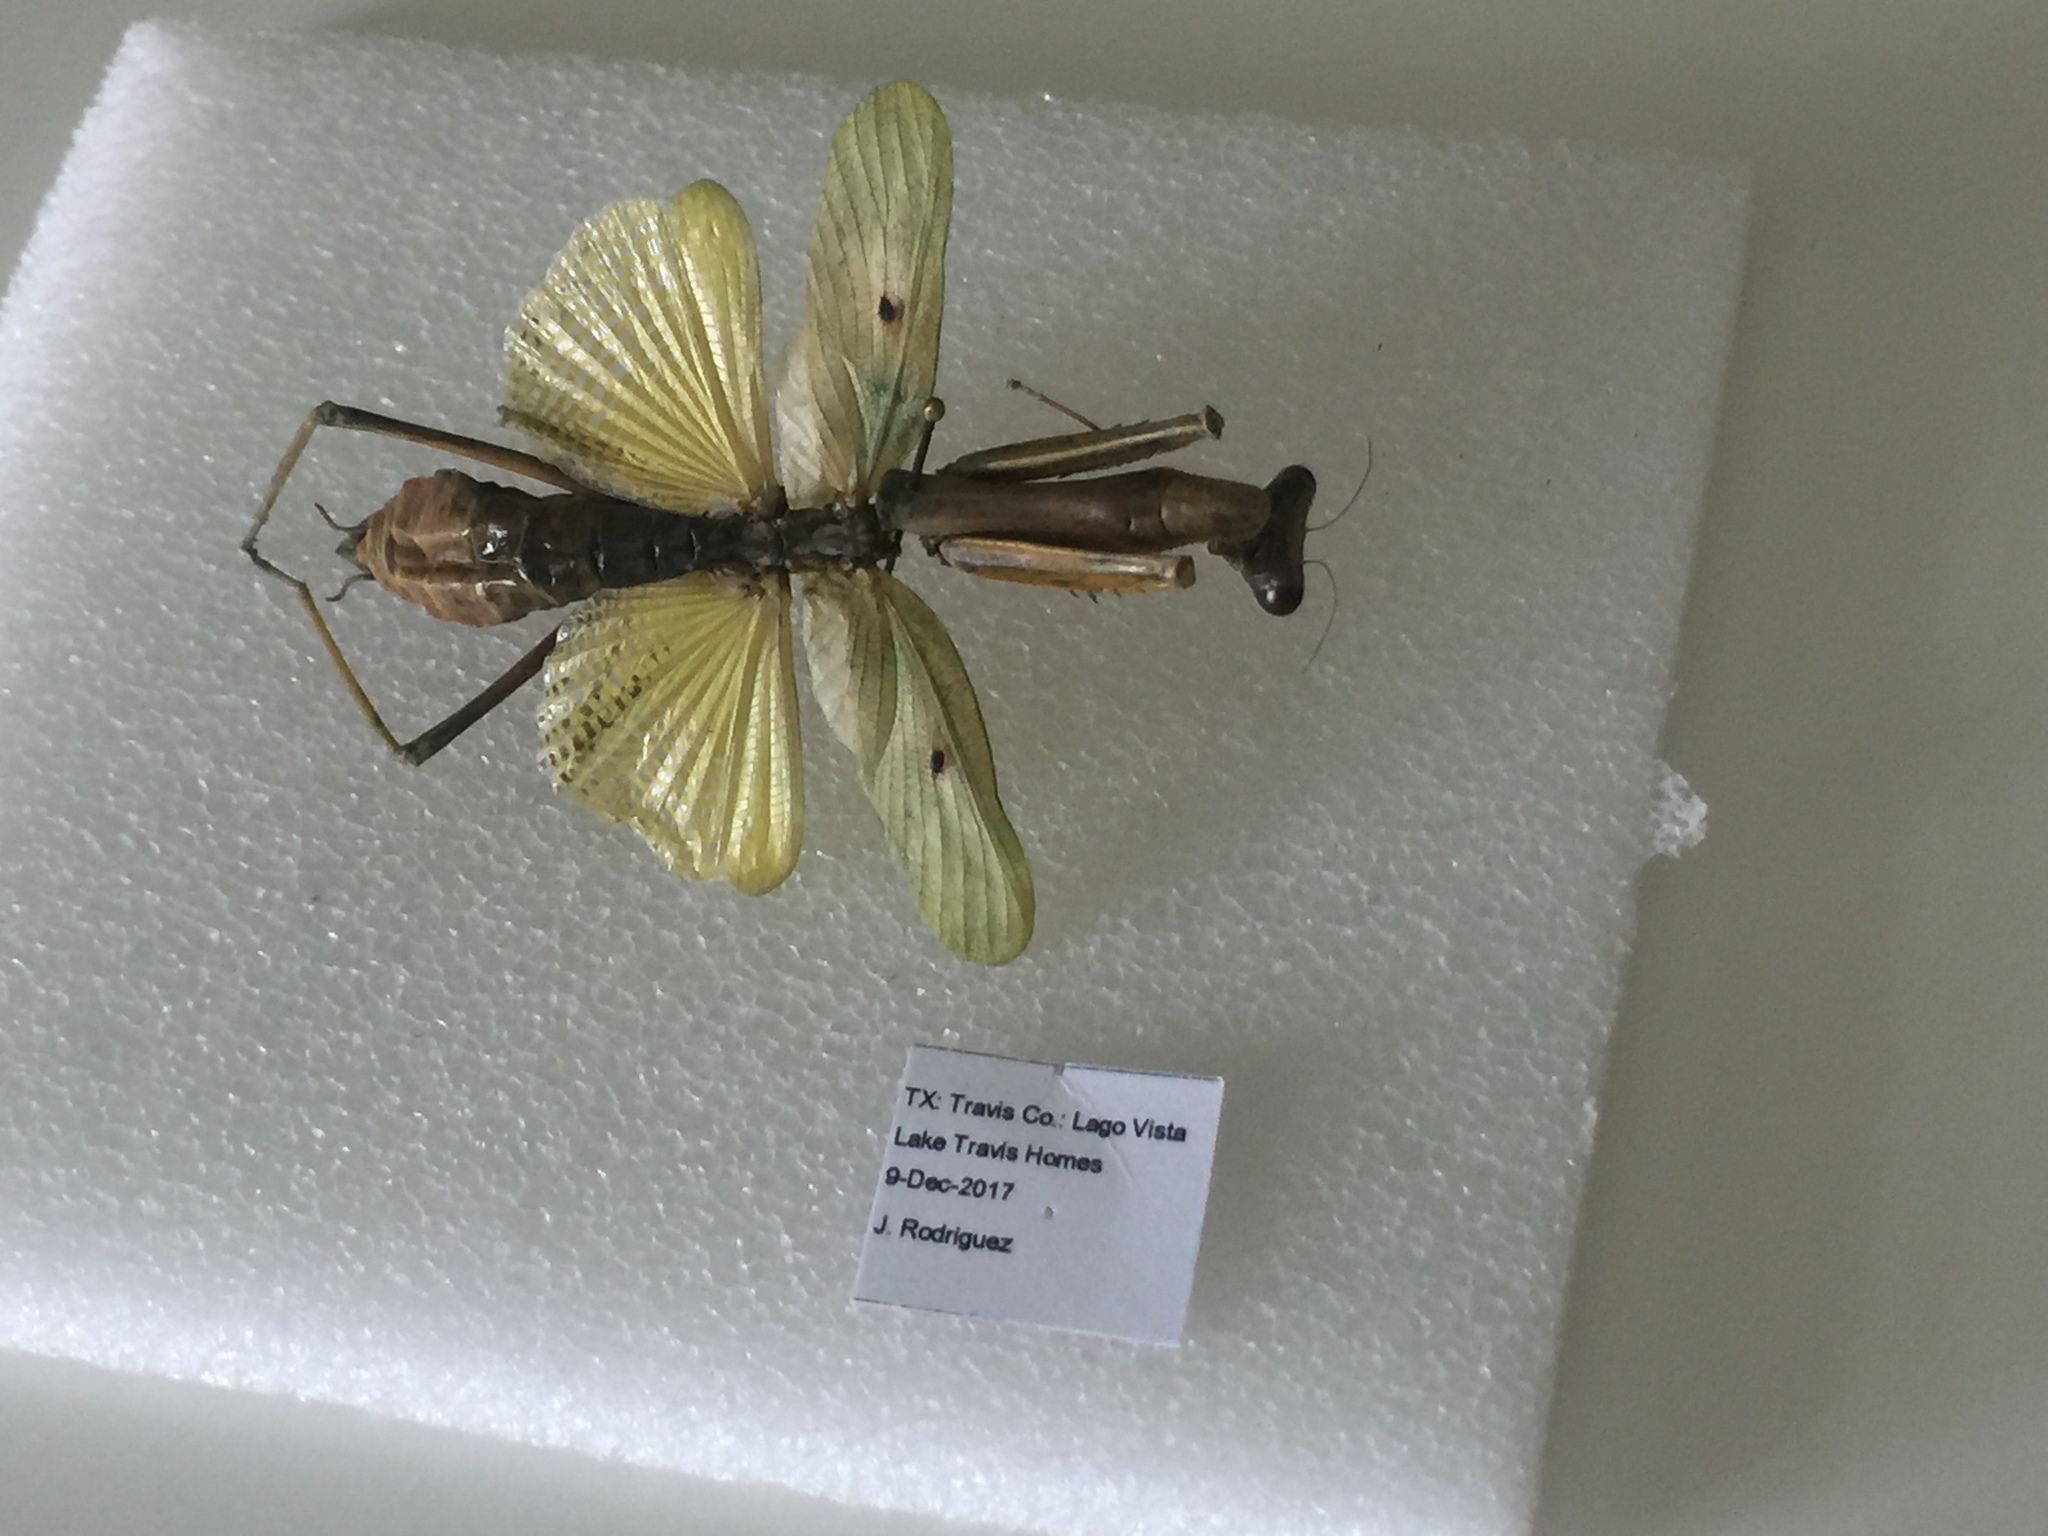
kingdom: Animalia
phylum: Arthropoda
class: Insecta
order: Mantodea
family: Mantidae
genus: Stagmomantis
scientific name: Stagmomantis carolina
